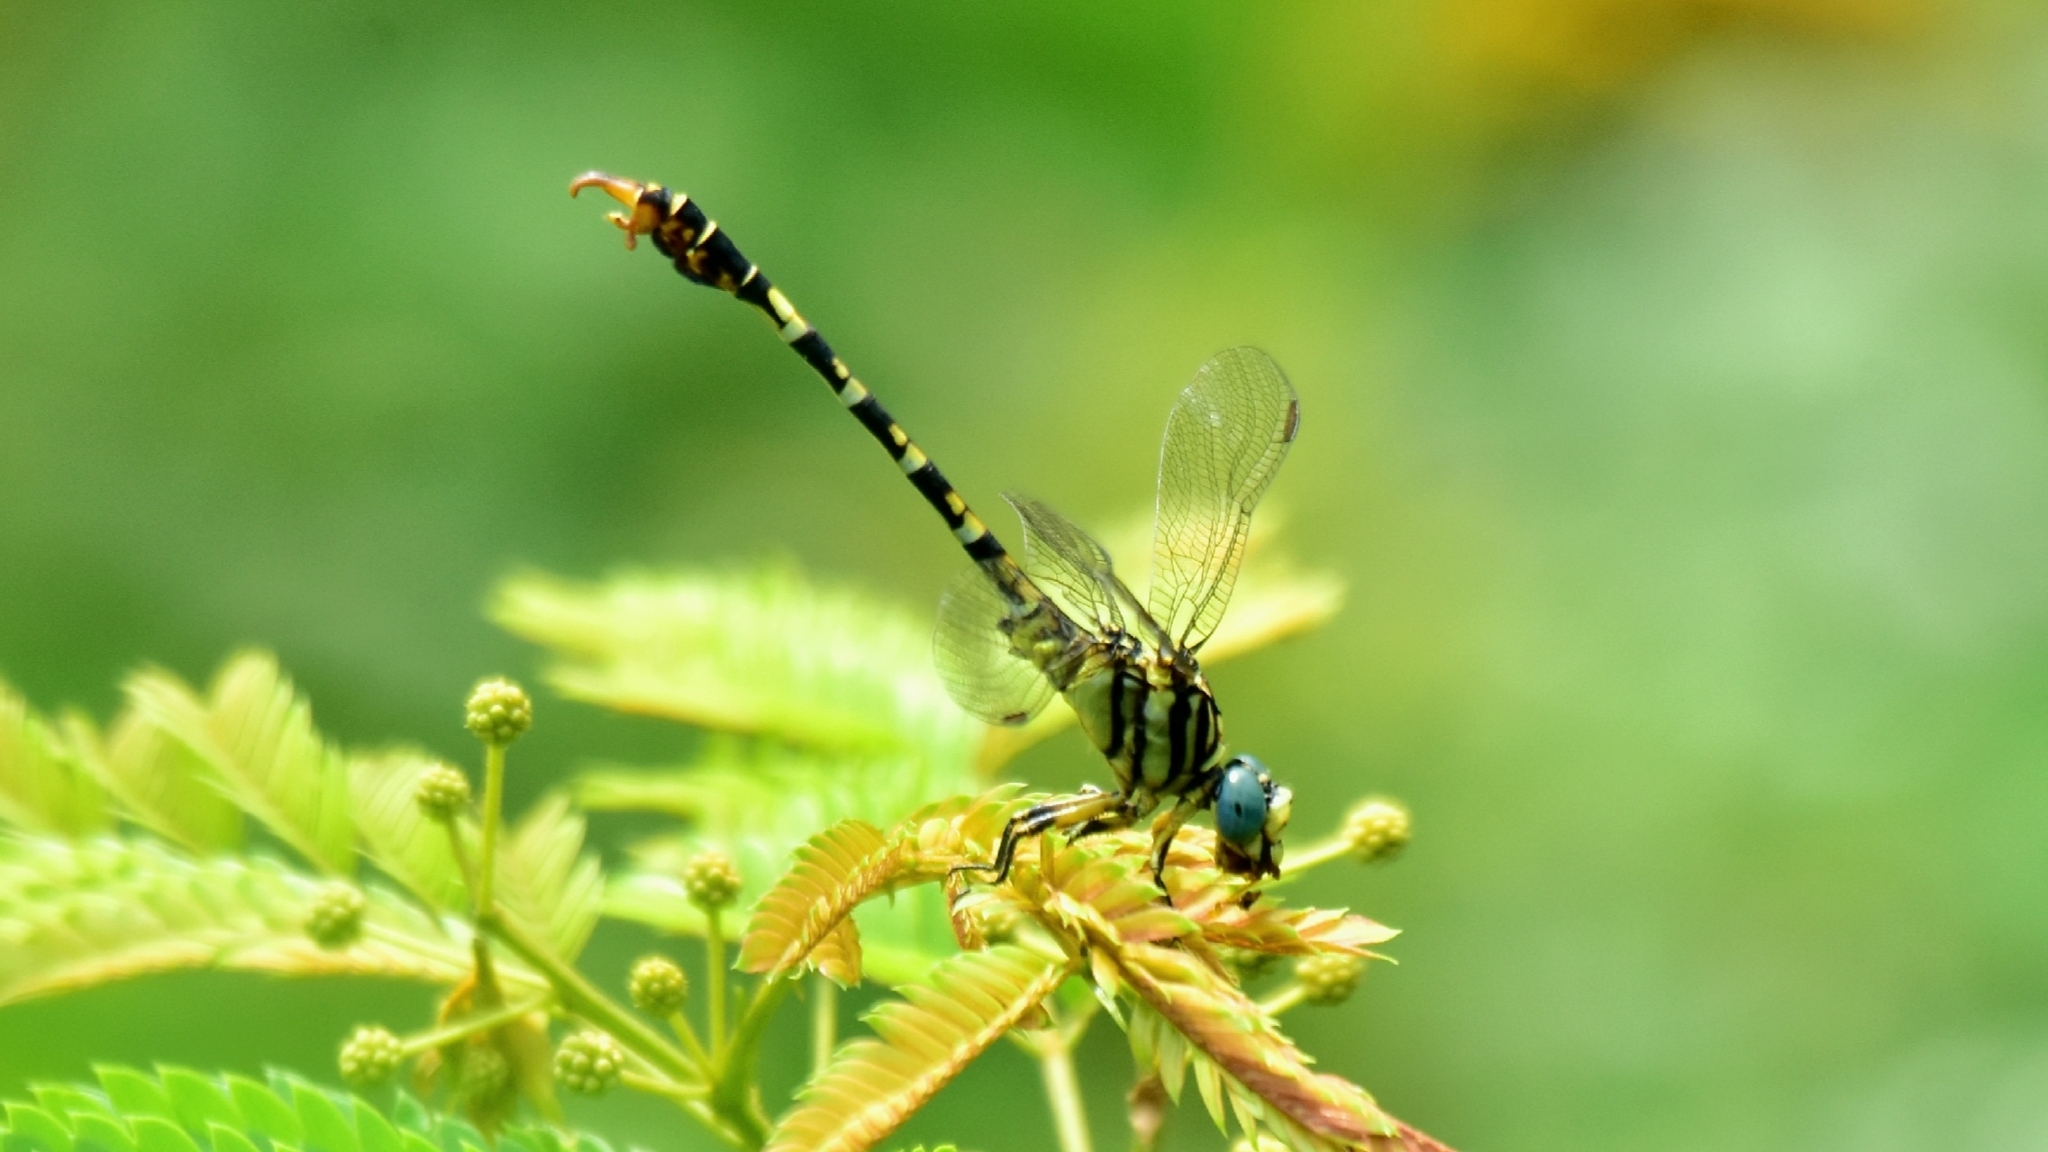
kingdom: Animalia
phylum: Arthropoda
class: Insecta
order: Odonata
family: Gomphidae
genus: Paragomphus
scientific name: Paragomphus lineatus
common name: Lined hooktail
